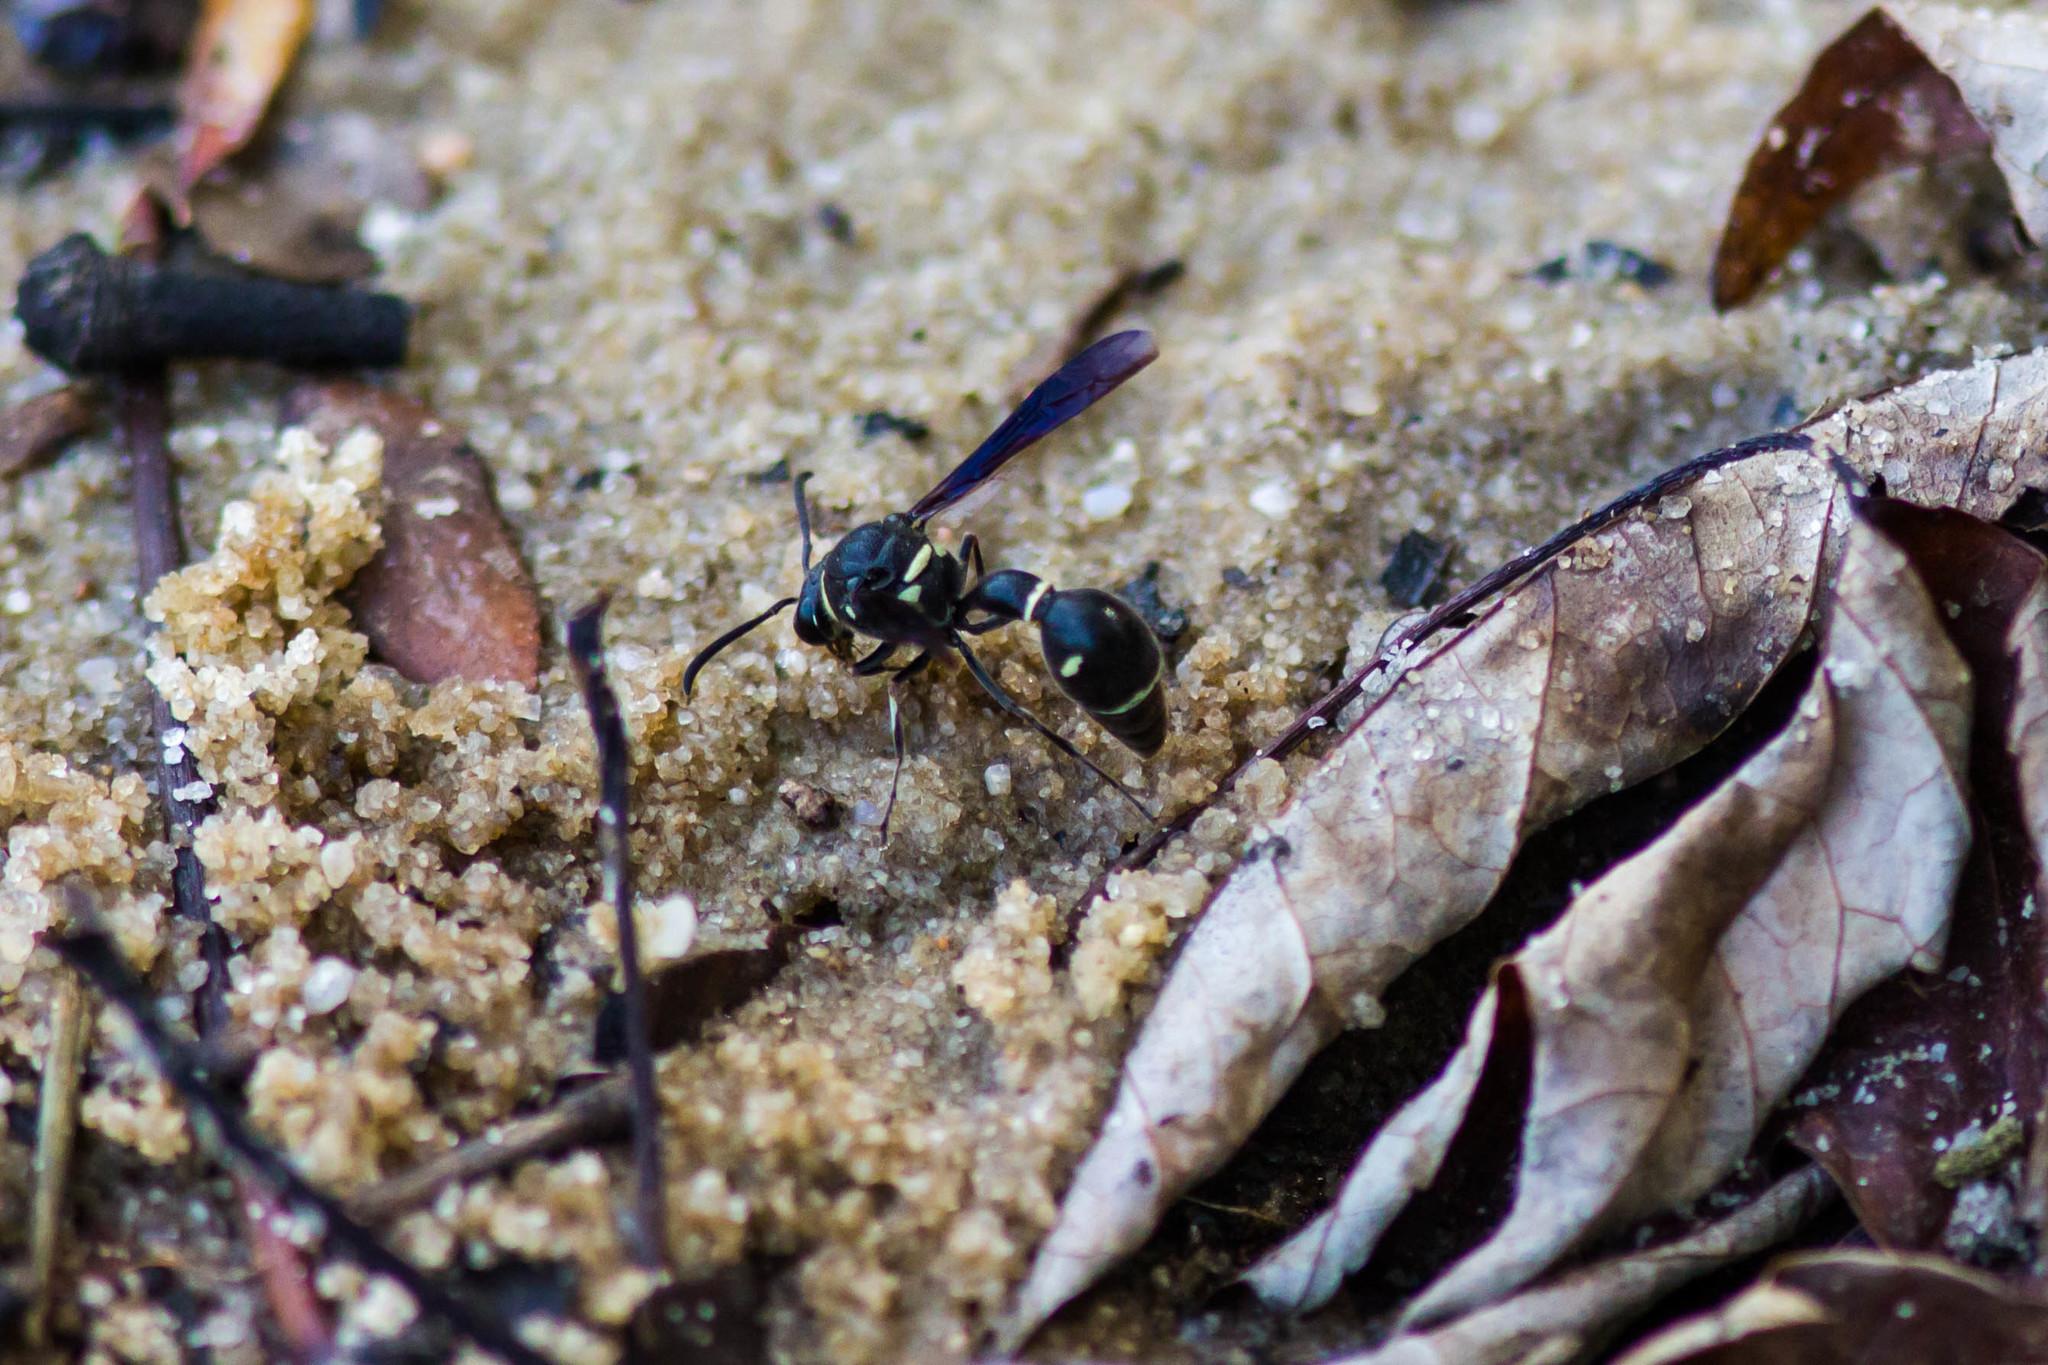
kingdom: Animalia
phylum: Arthropoda
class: Insecta
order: Hymenoptera
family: Vespidae
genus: Eumenes
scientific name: Eumenes fraternus
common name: Fraternal potter wasp
